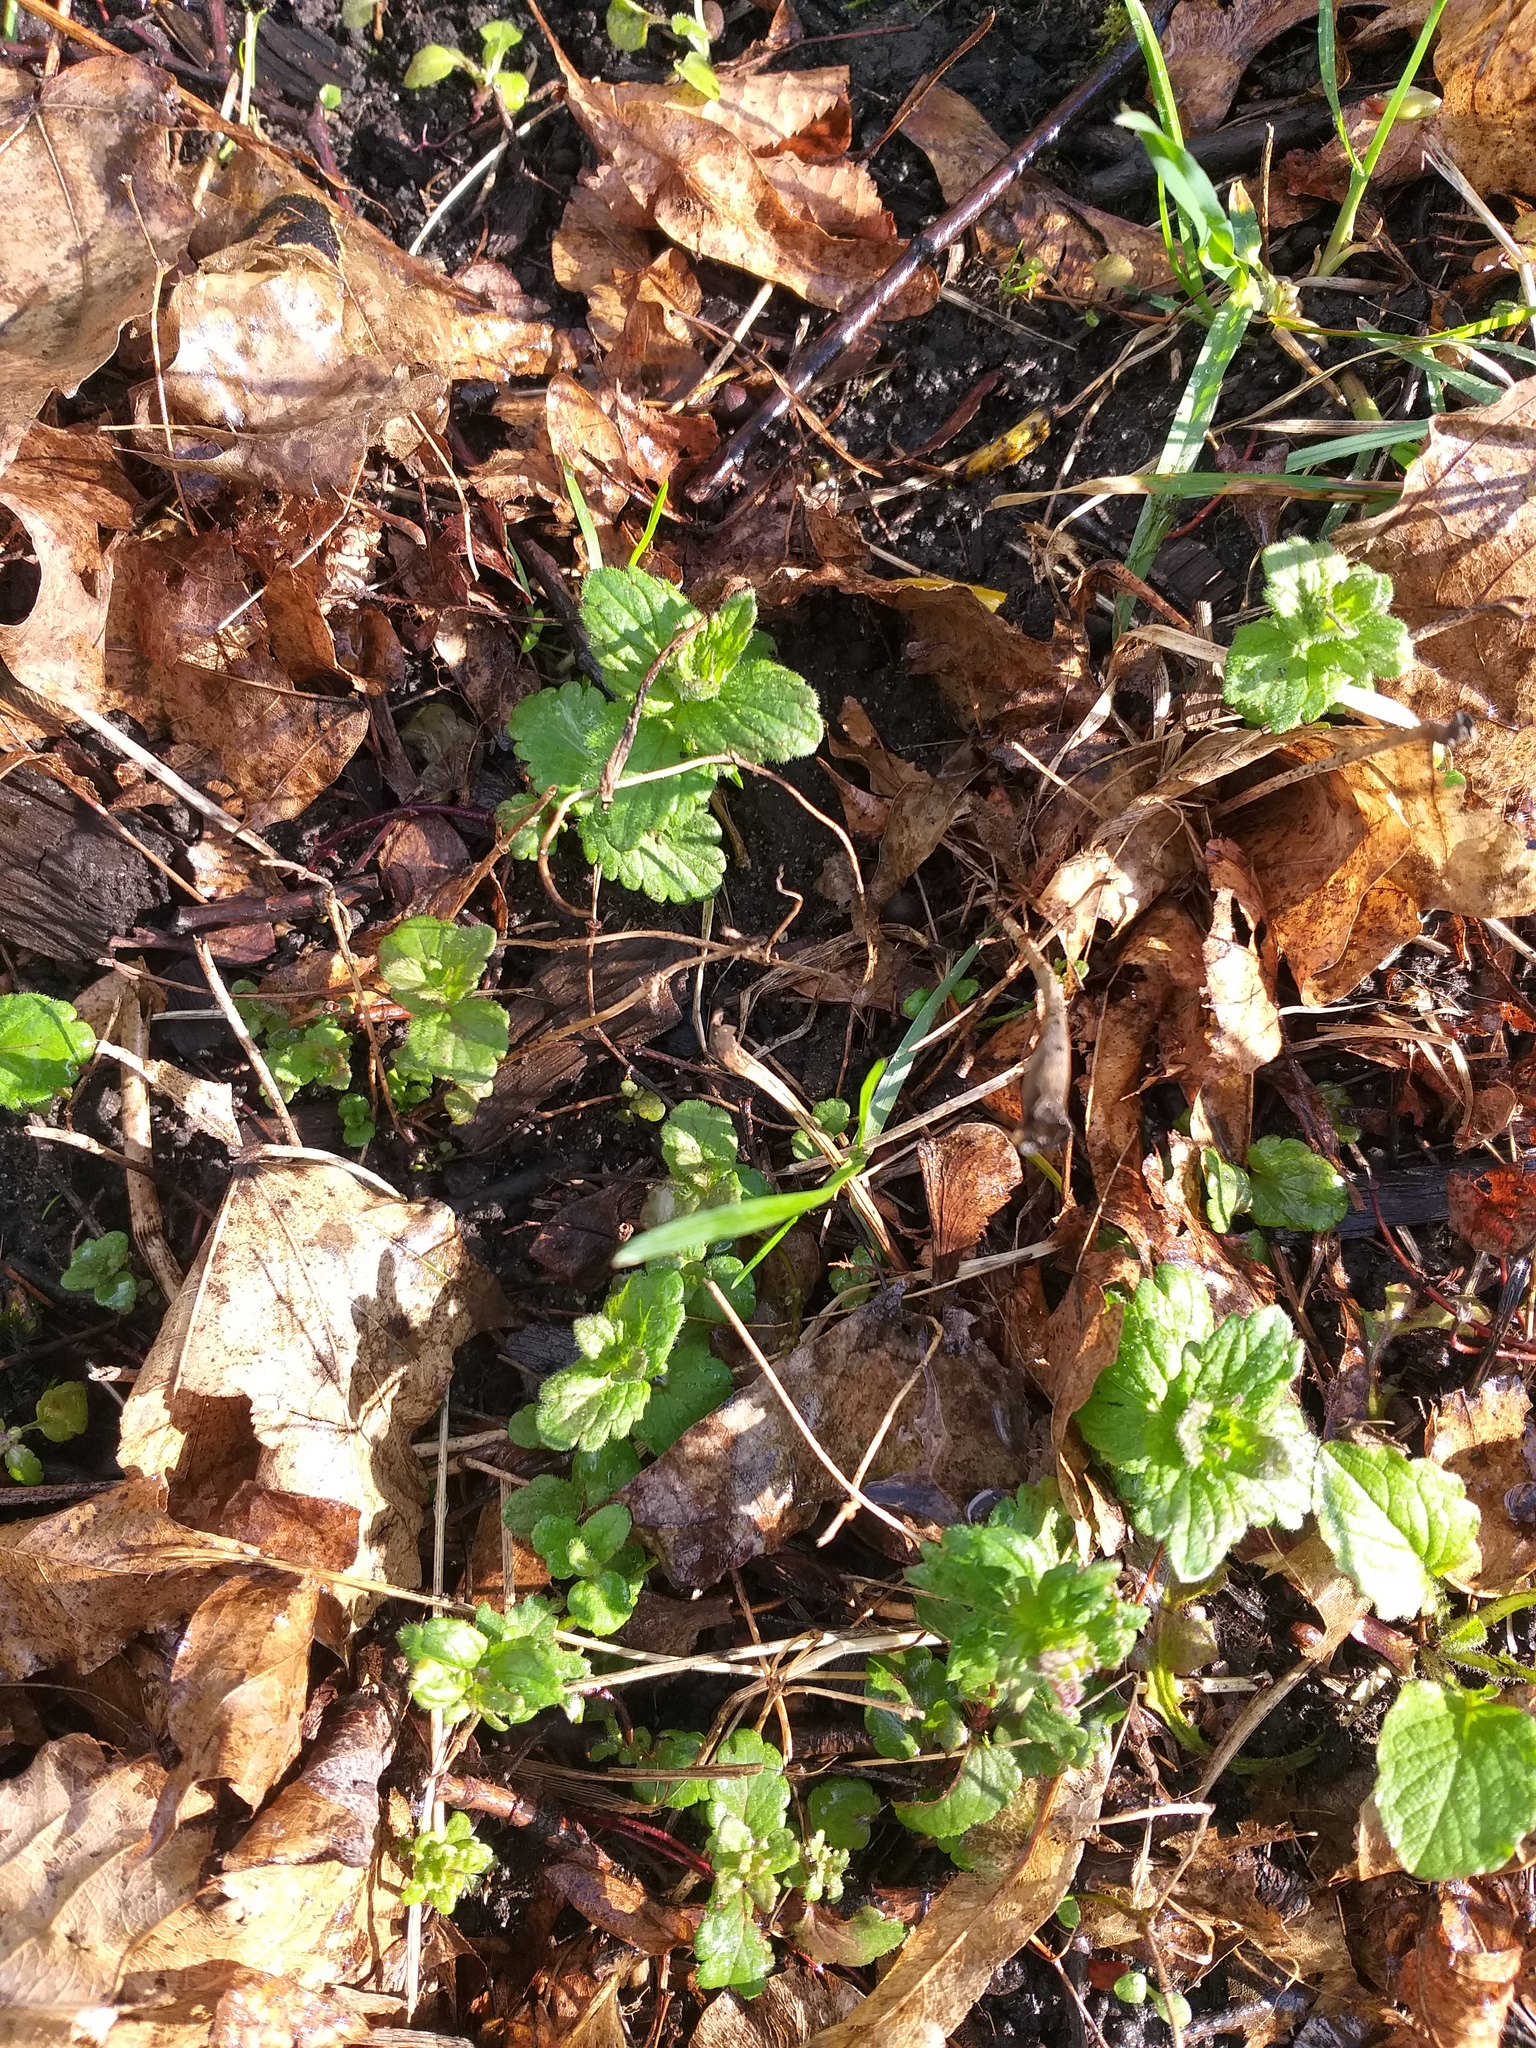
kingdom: Plantae
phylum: Tracheophyta
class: Magnoliopsida
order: Lamiales
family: Plantaginaceae
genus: Veronica
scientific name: Veronica chamaedrys
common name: Germander speedwell
